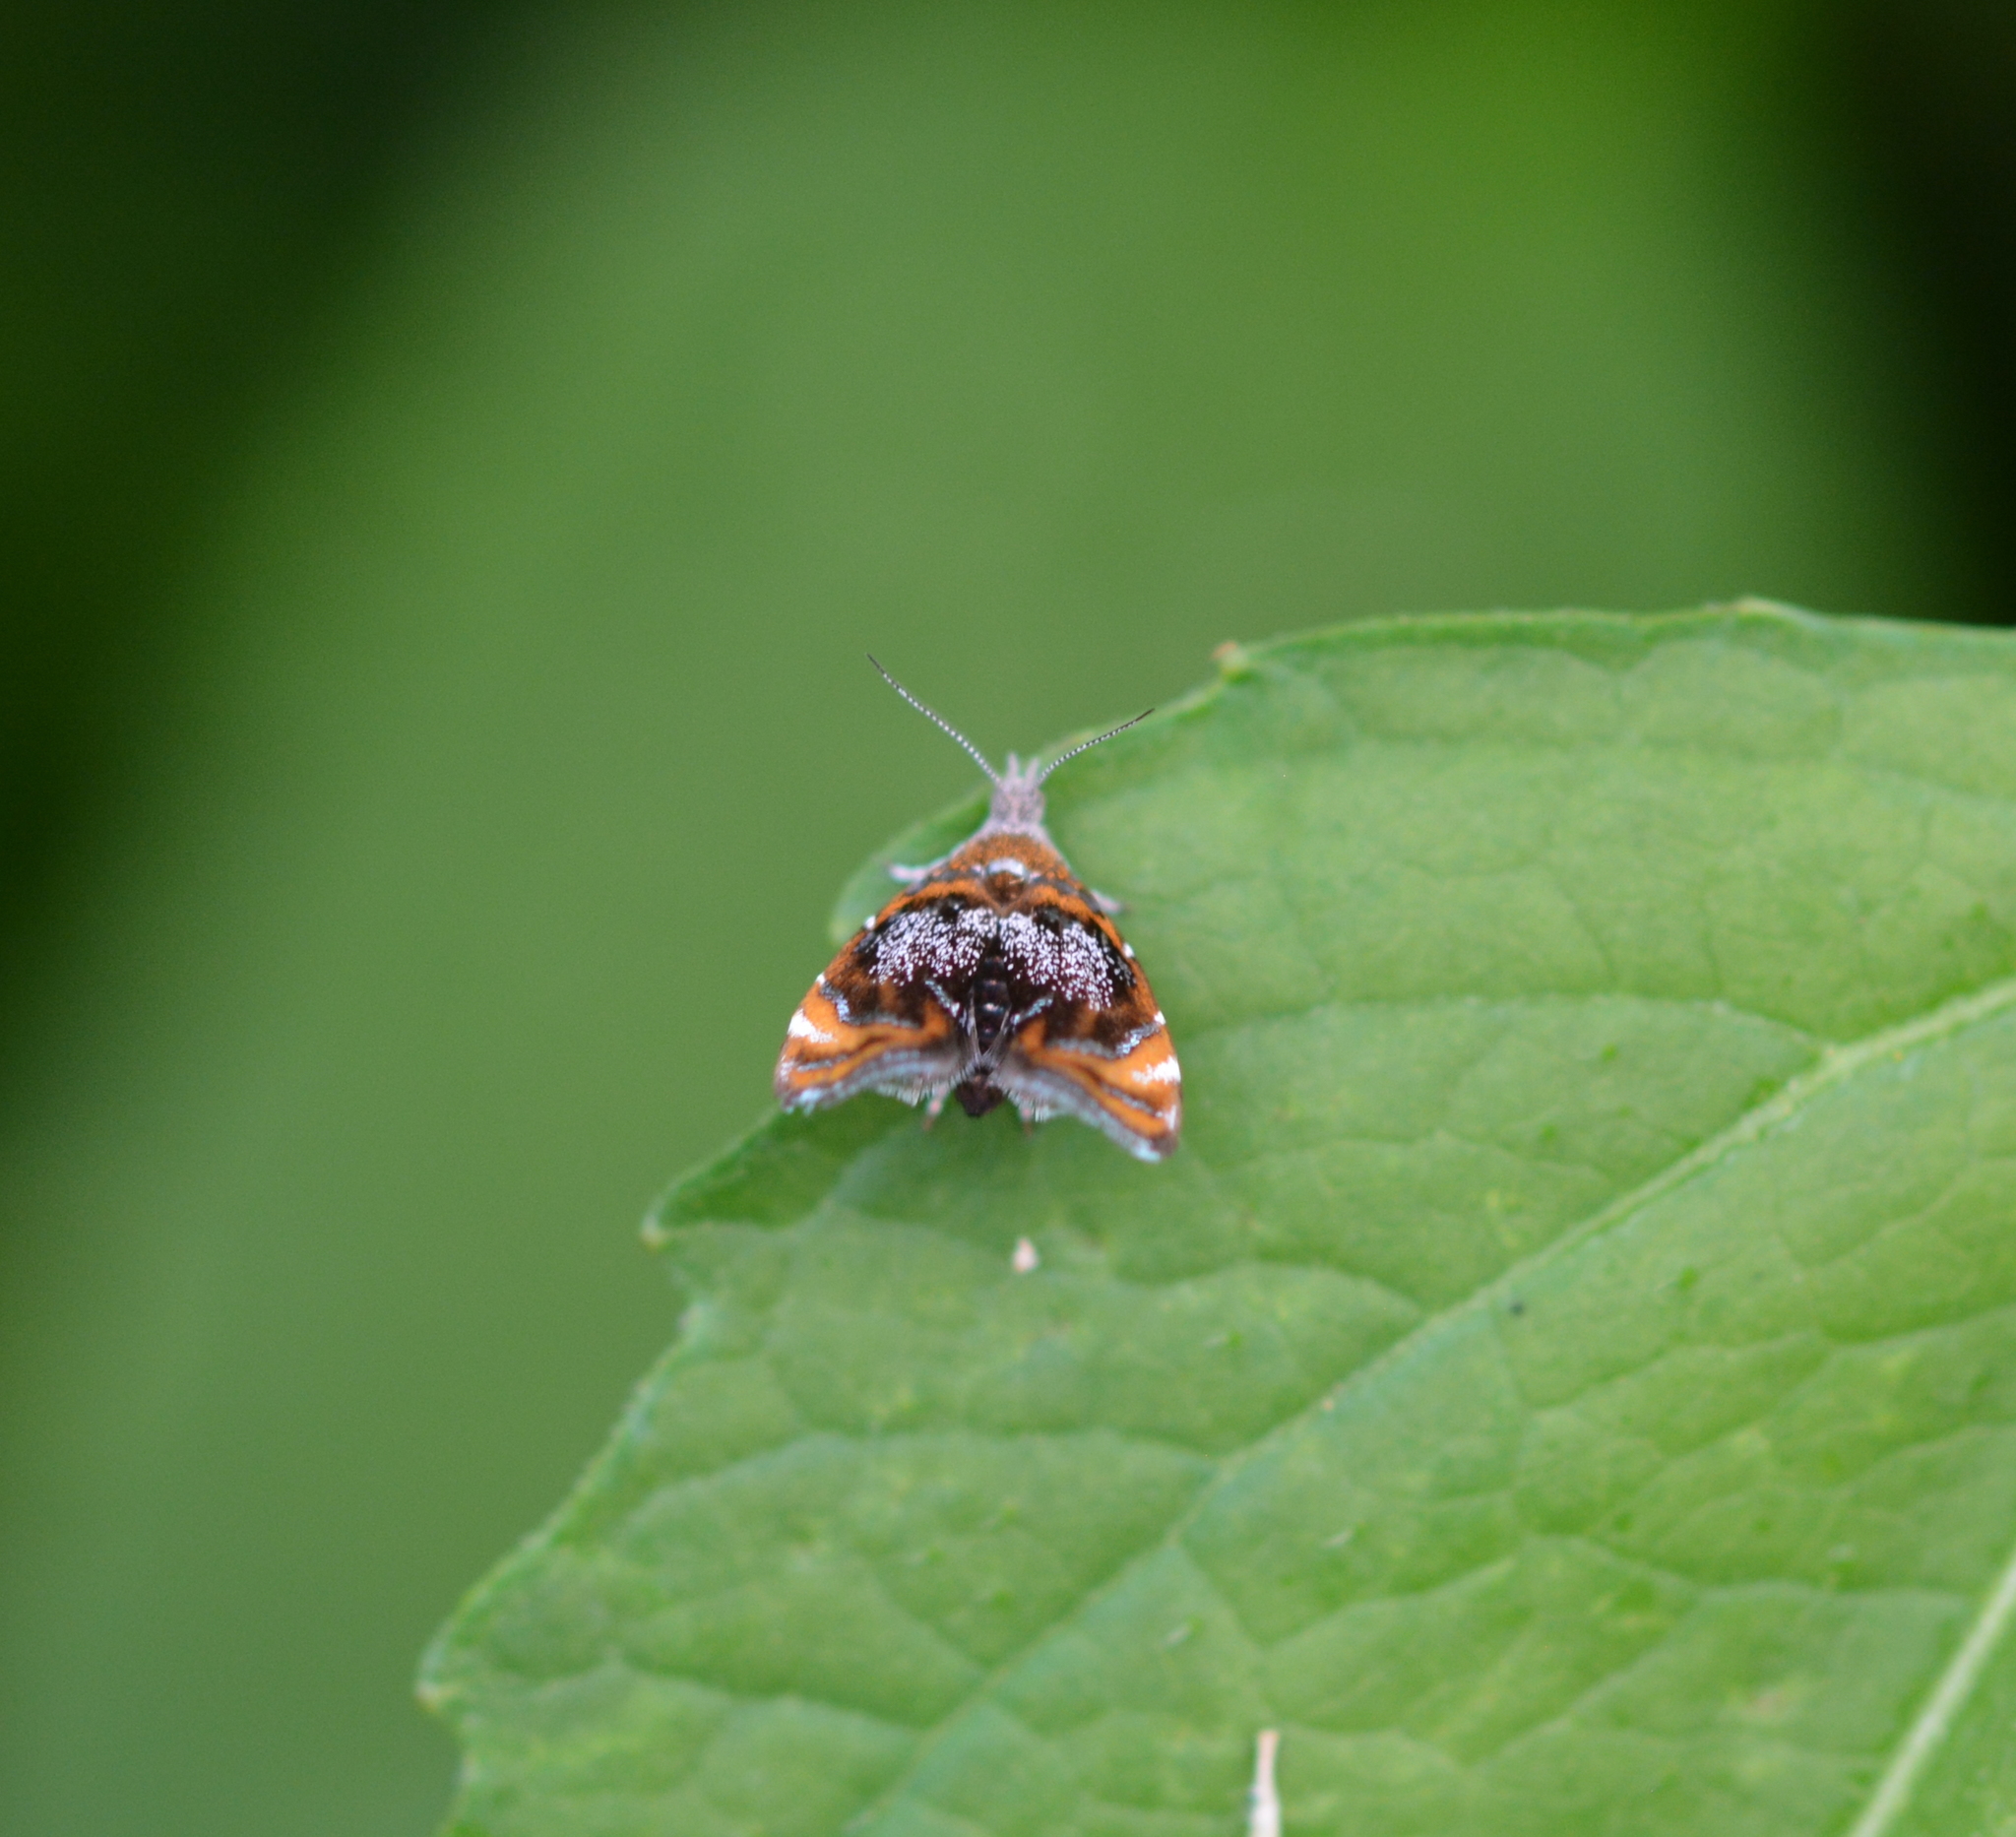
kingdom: Animalia
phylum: Arthropoda
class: Insecta
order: Lepidoptera
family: Choreutidae
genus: Prochoreutis
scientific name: Prochoreutis inflatella
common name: Skullcap skeletonizer moth
